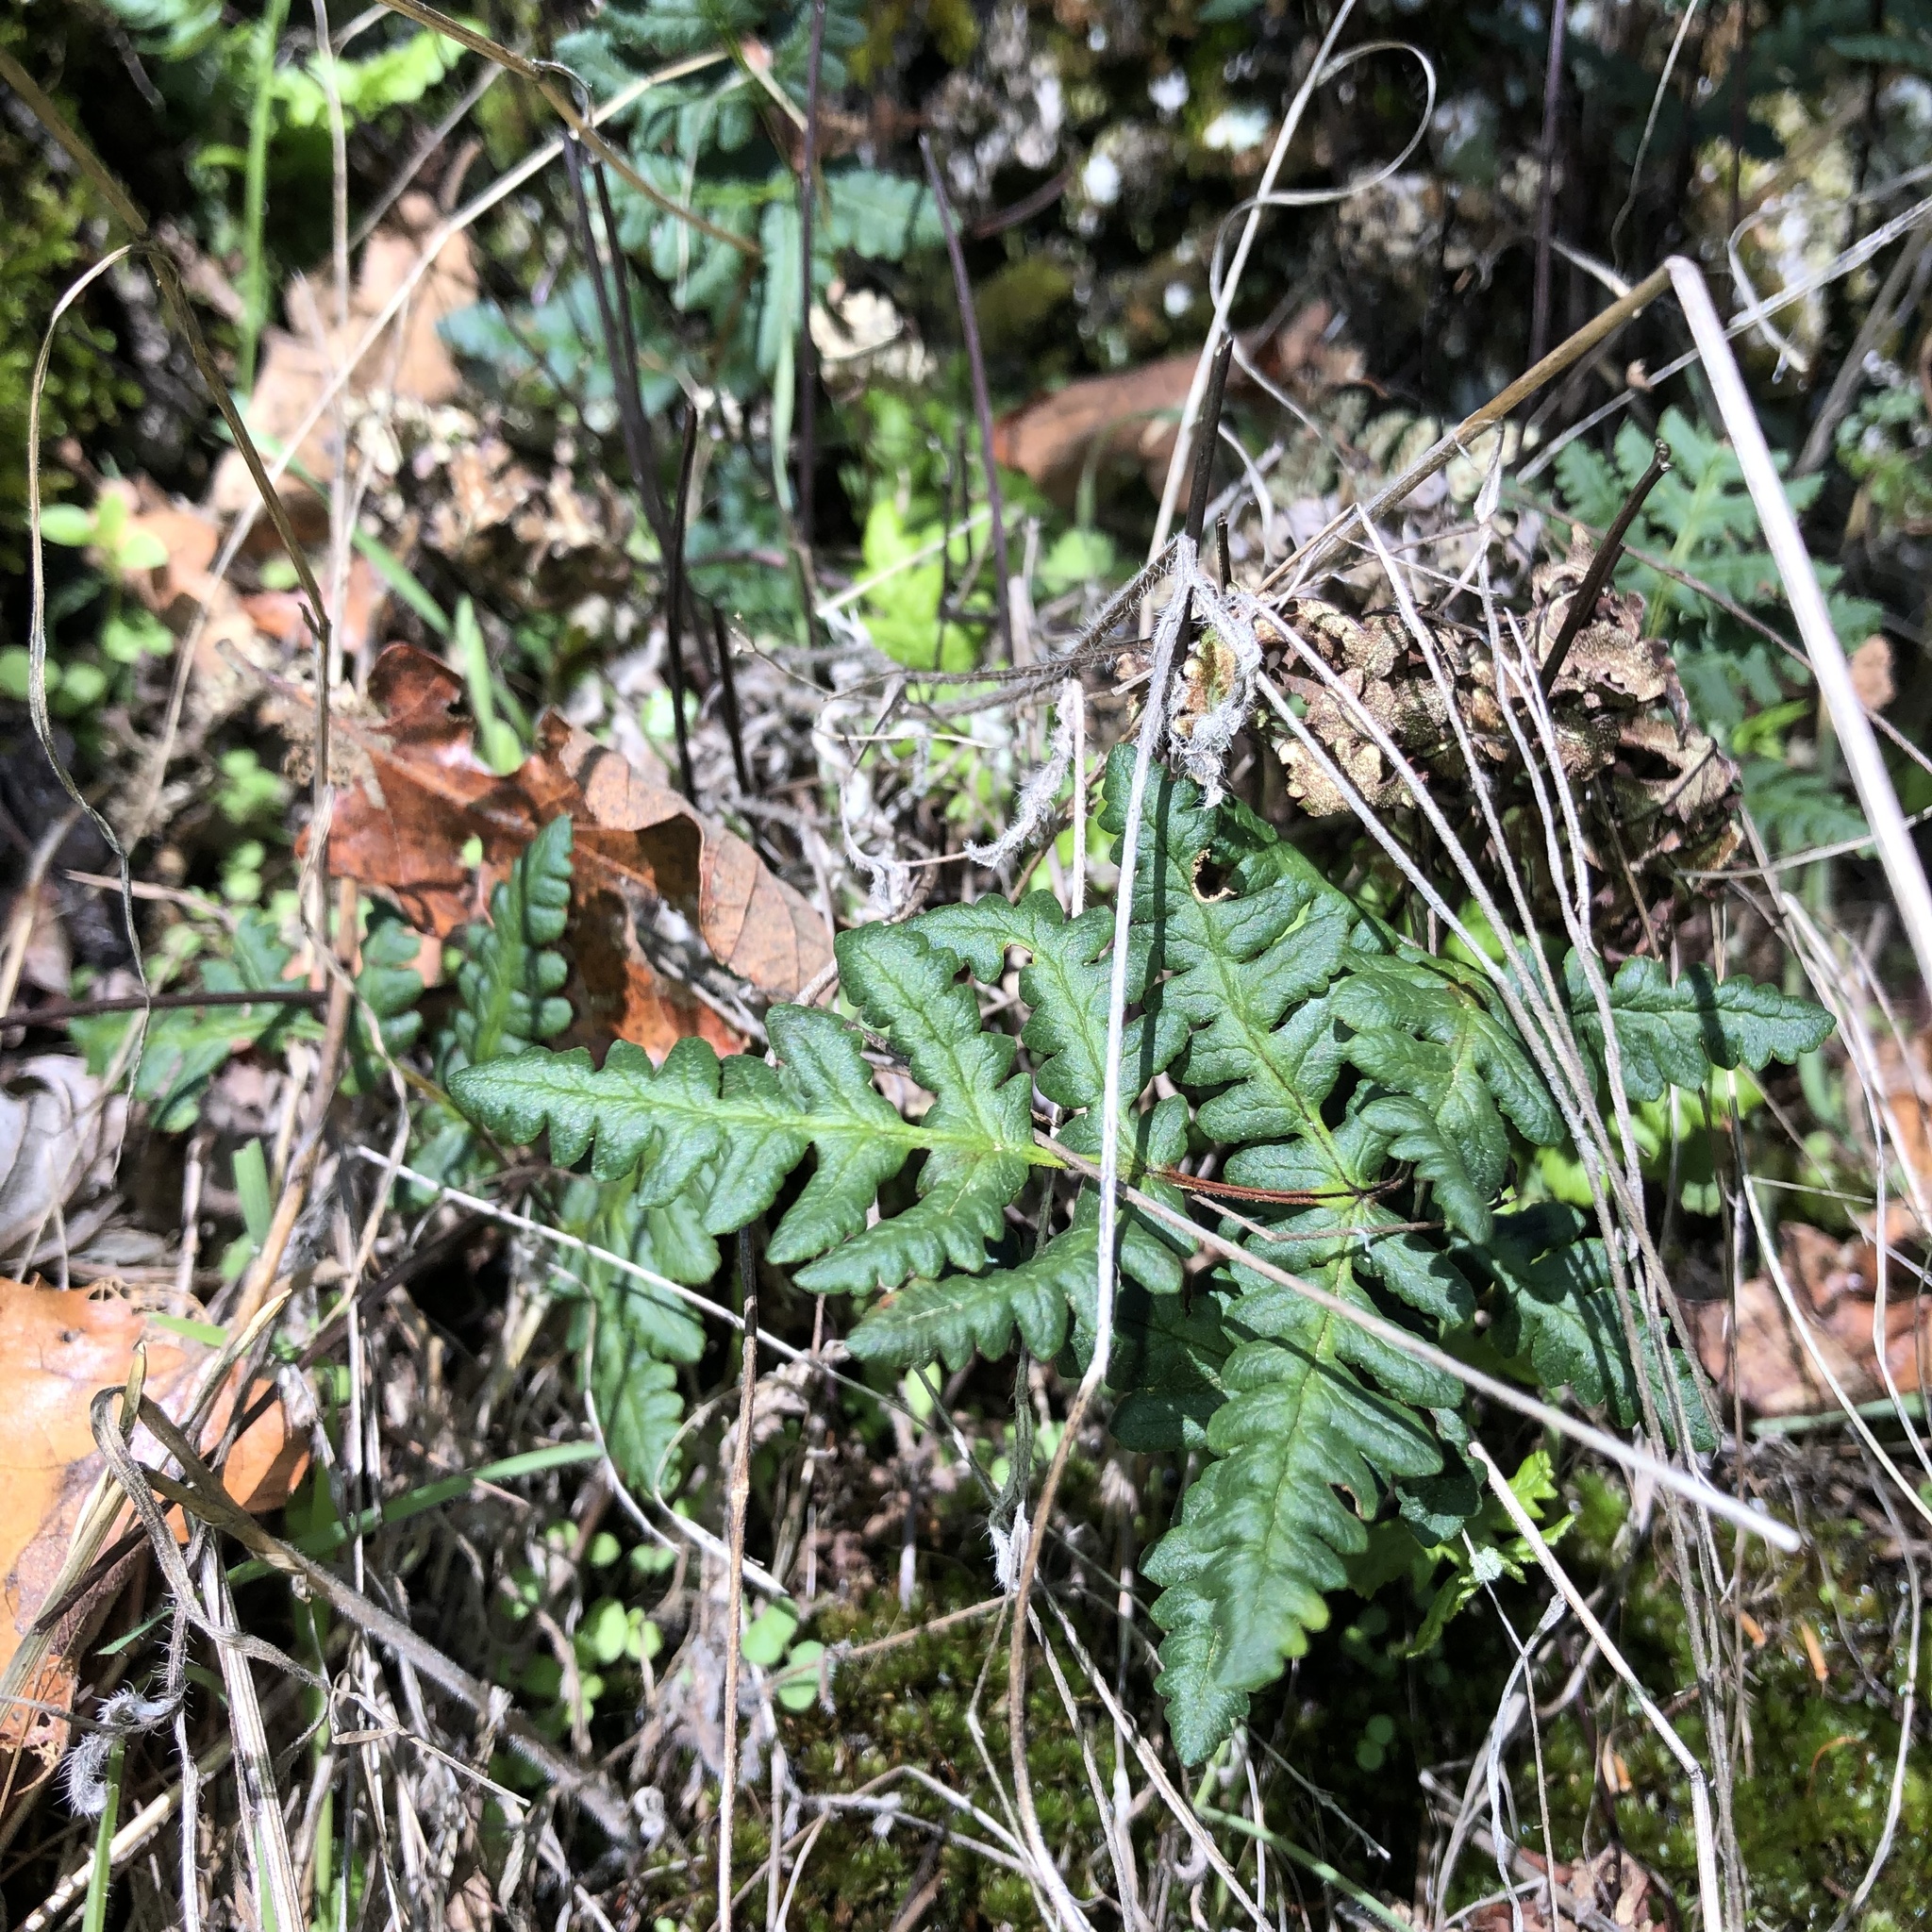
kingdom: Plantae
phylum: Tracheophyta
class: Polypodiopsida
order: Polypodiales
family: Pteridaceae
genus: Pentagramma
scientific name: Pentagramma triangularis
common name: Gold fern
